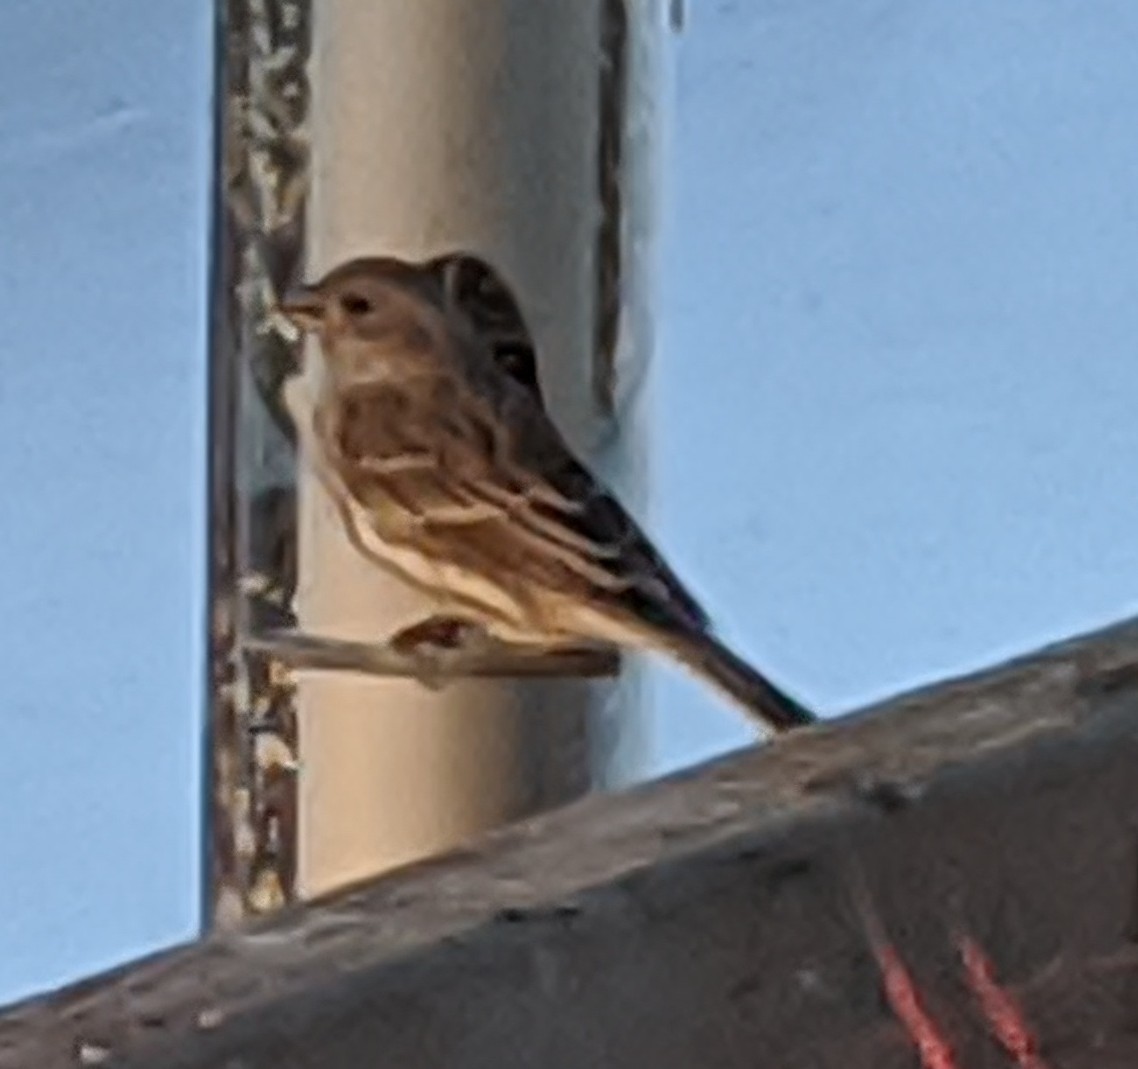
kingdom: Animalia
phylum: Chordata
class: Aves
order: Passeriformes
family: Passeridae
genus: Passer
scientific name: Passer domesticus
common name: House sparrow
